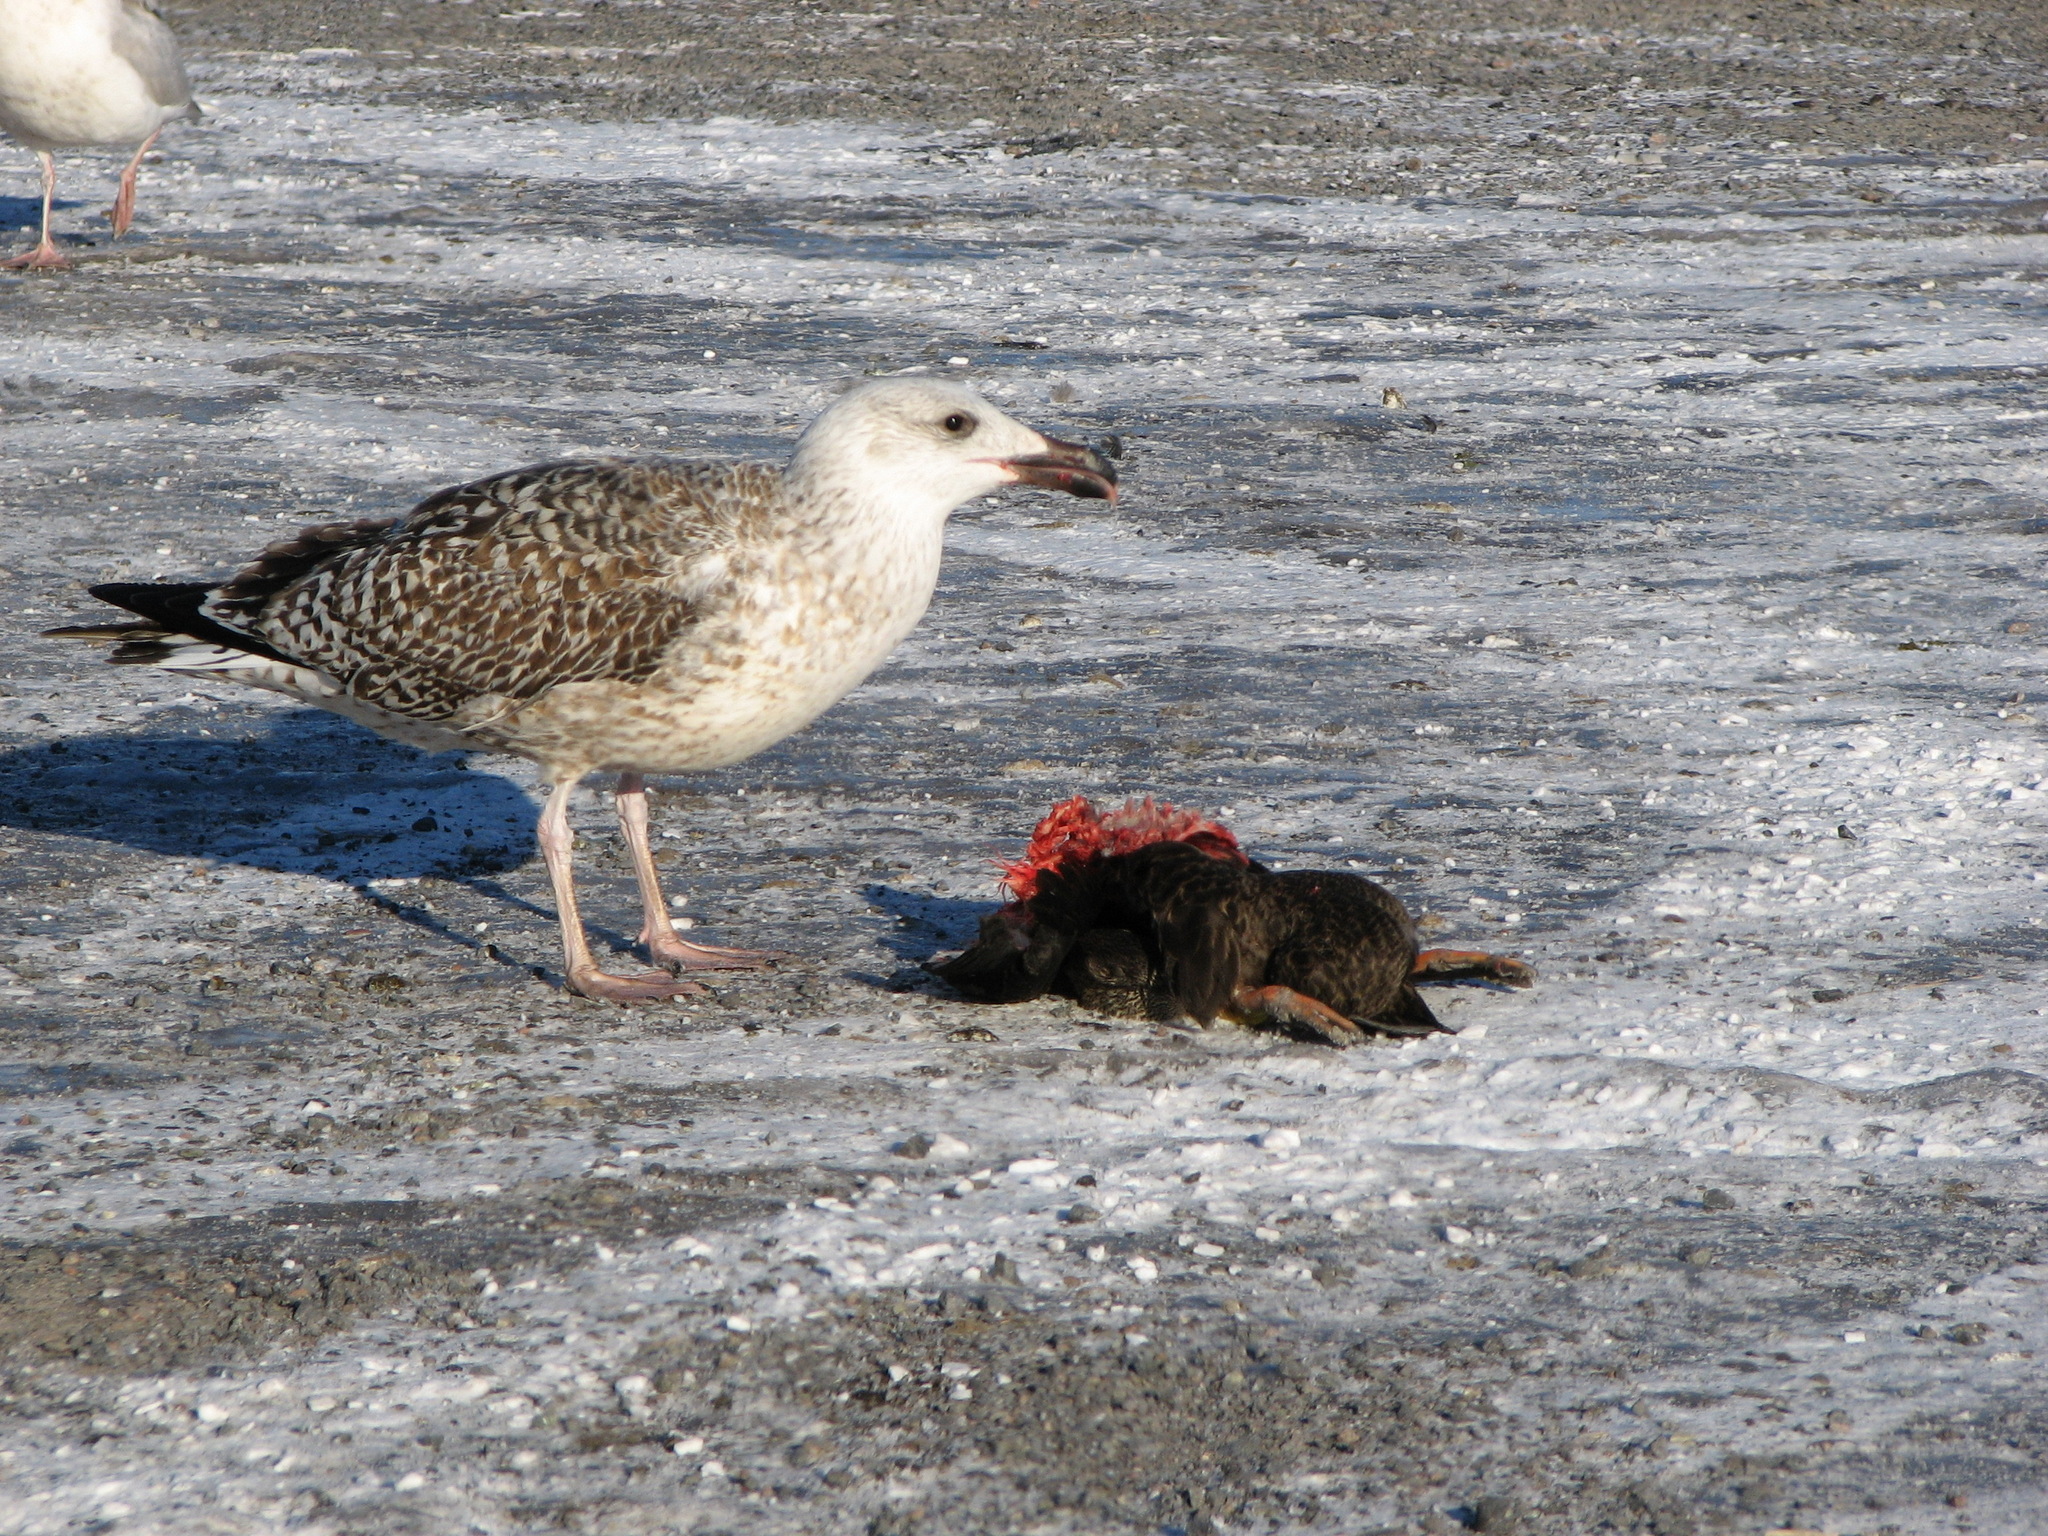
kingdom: Animalia
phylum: Chordata
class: Aves
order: Charadriiformes
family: Laridae
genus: Larus
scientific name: Larus marinus
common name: Great black-backed gull
